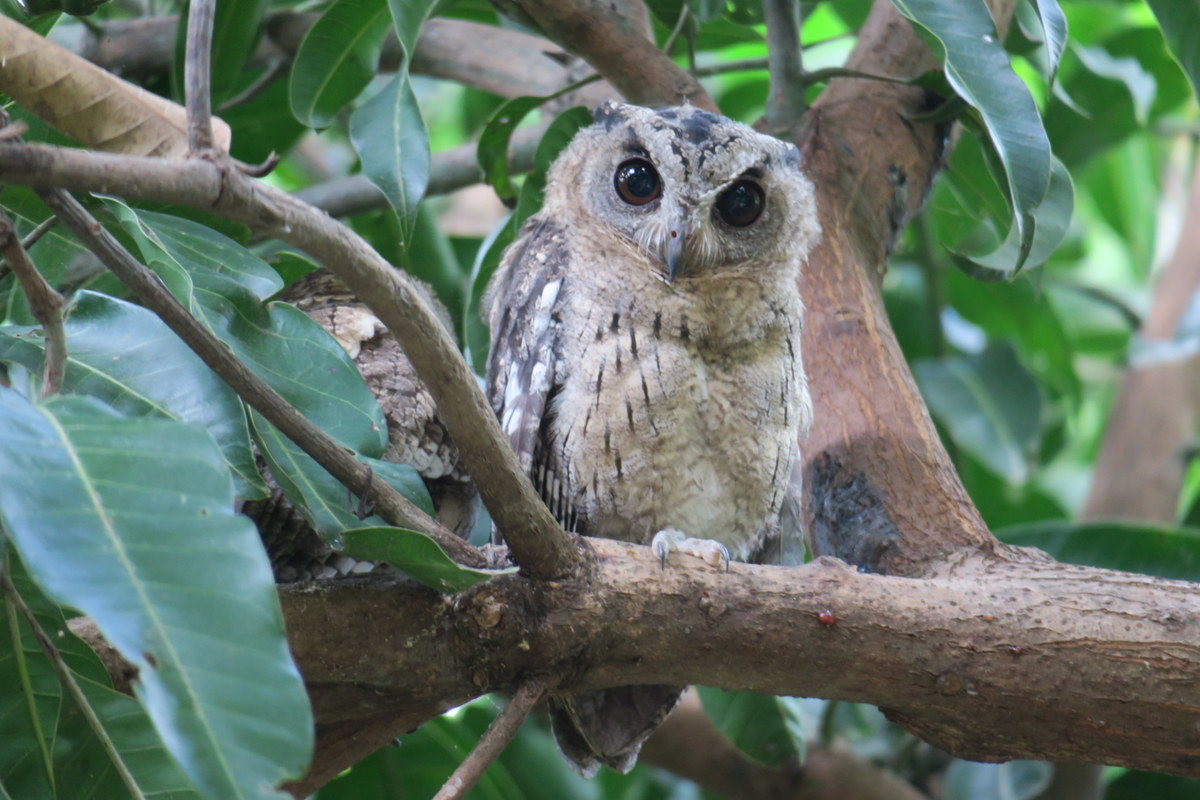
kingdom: Animalia
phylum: Chordata
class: Aves
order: Strigiformes
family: Strigidae
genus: Otus
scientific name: Otus bakkamoena
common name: Indian scops owl
